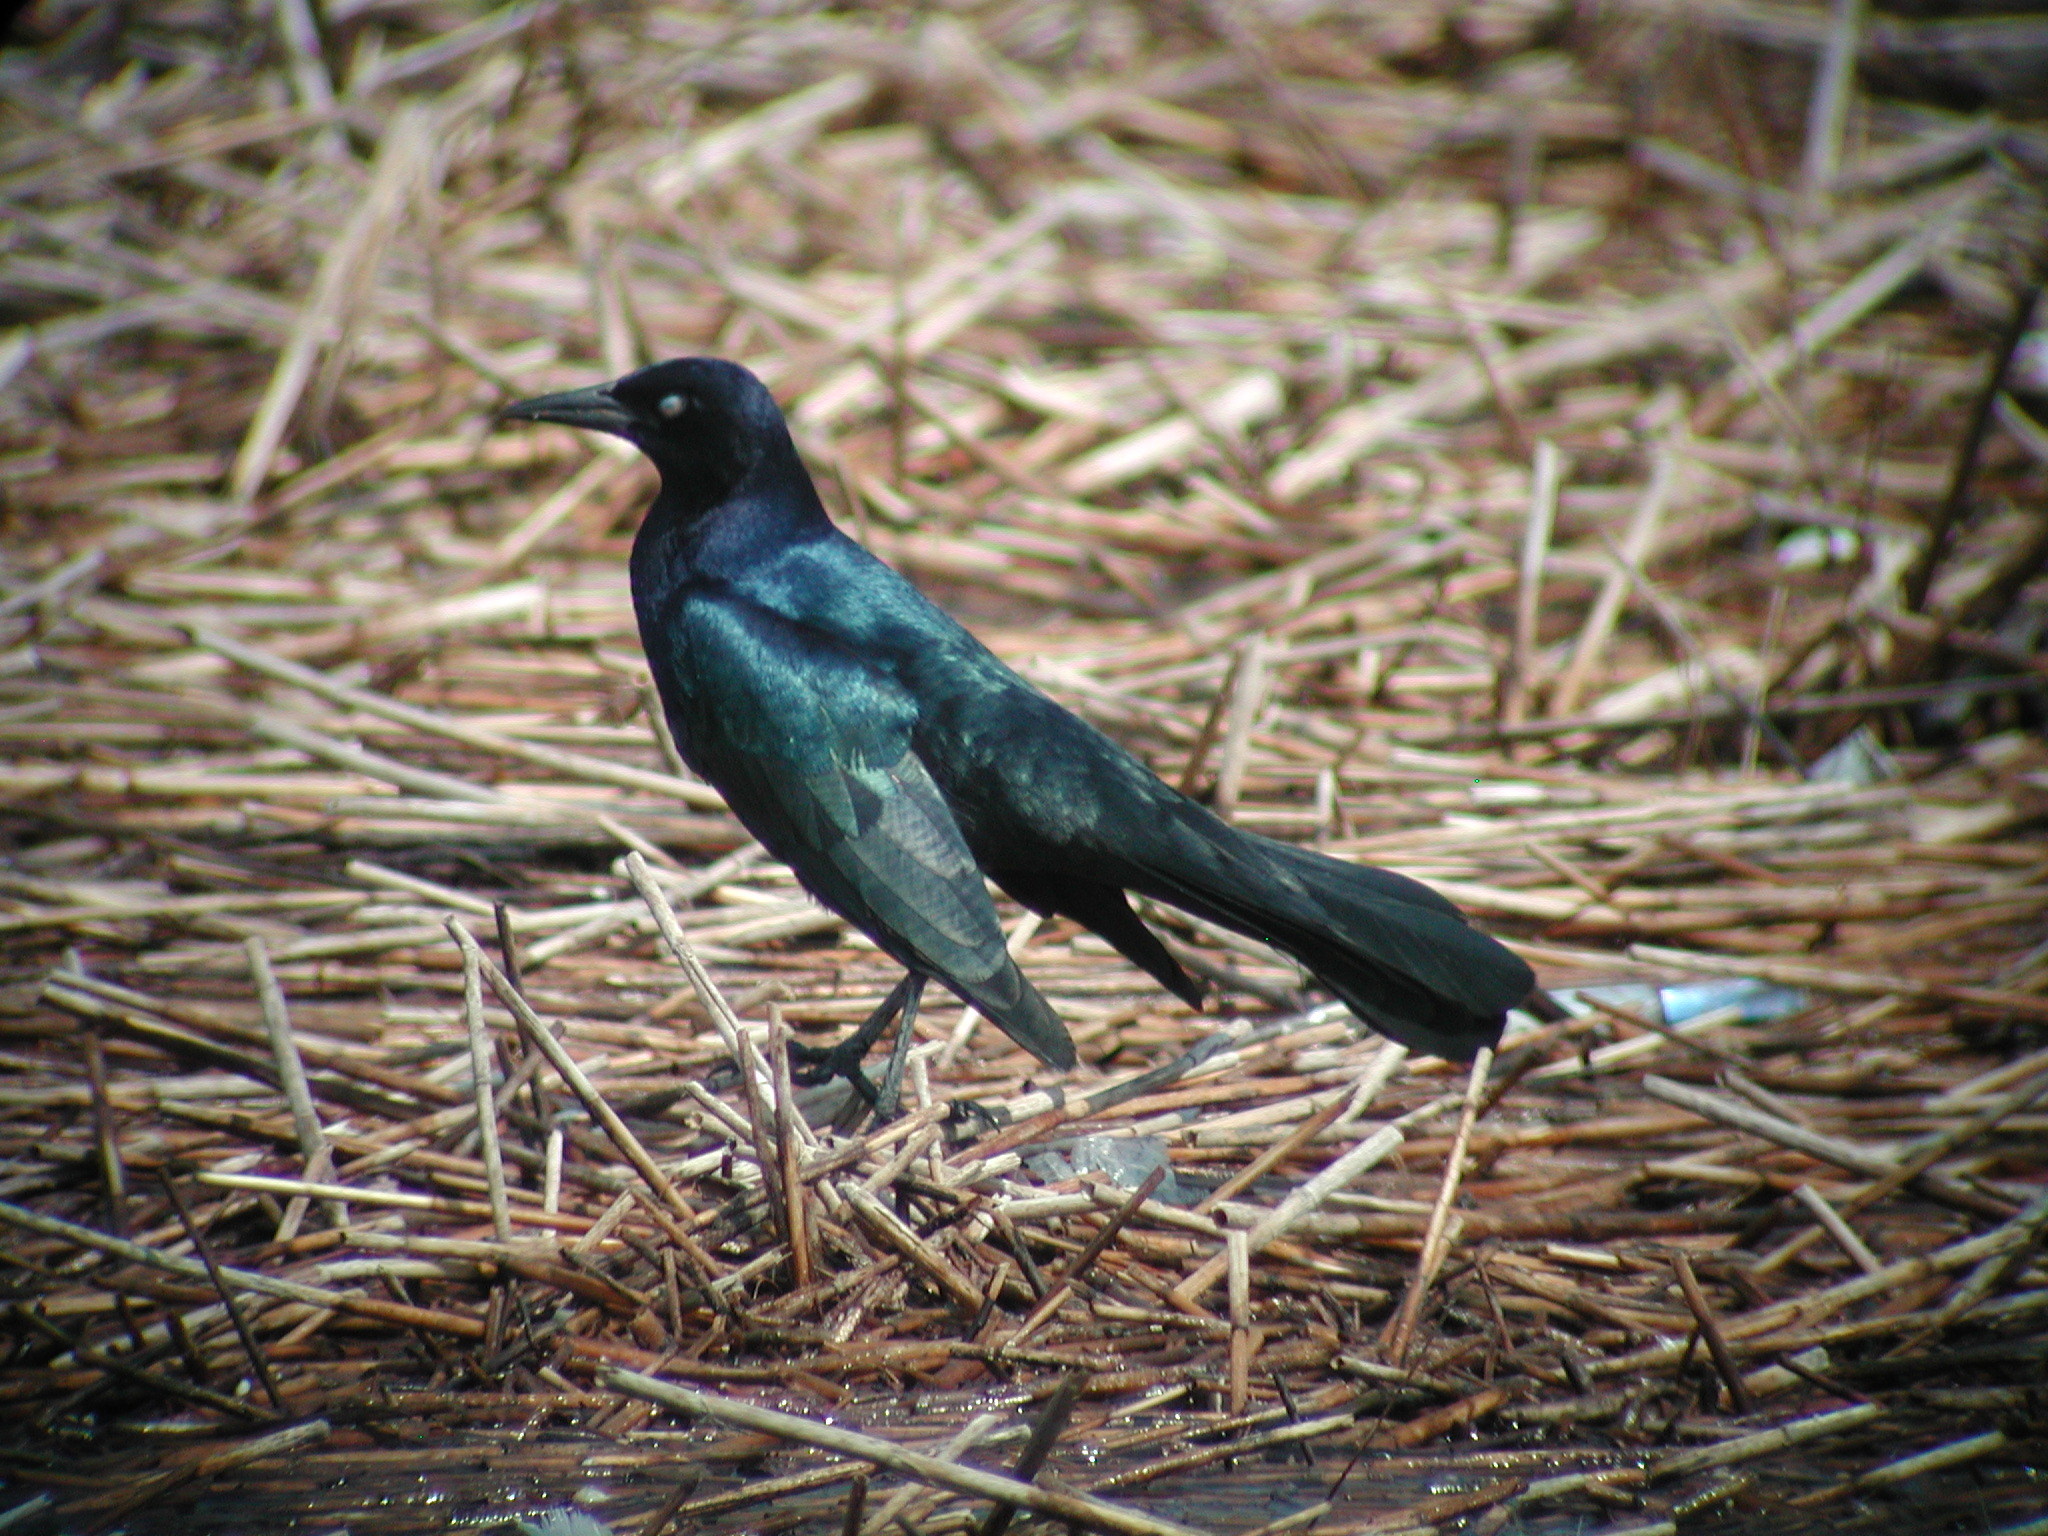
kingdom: Animalia
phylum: Chordata
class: Aves
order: Passeriformes
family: Icteridae
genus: Quiscalus
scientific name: Quiscalus major
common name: Boat-tailed grackle
